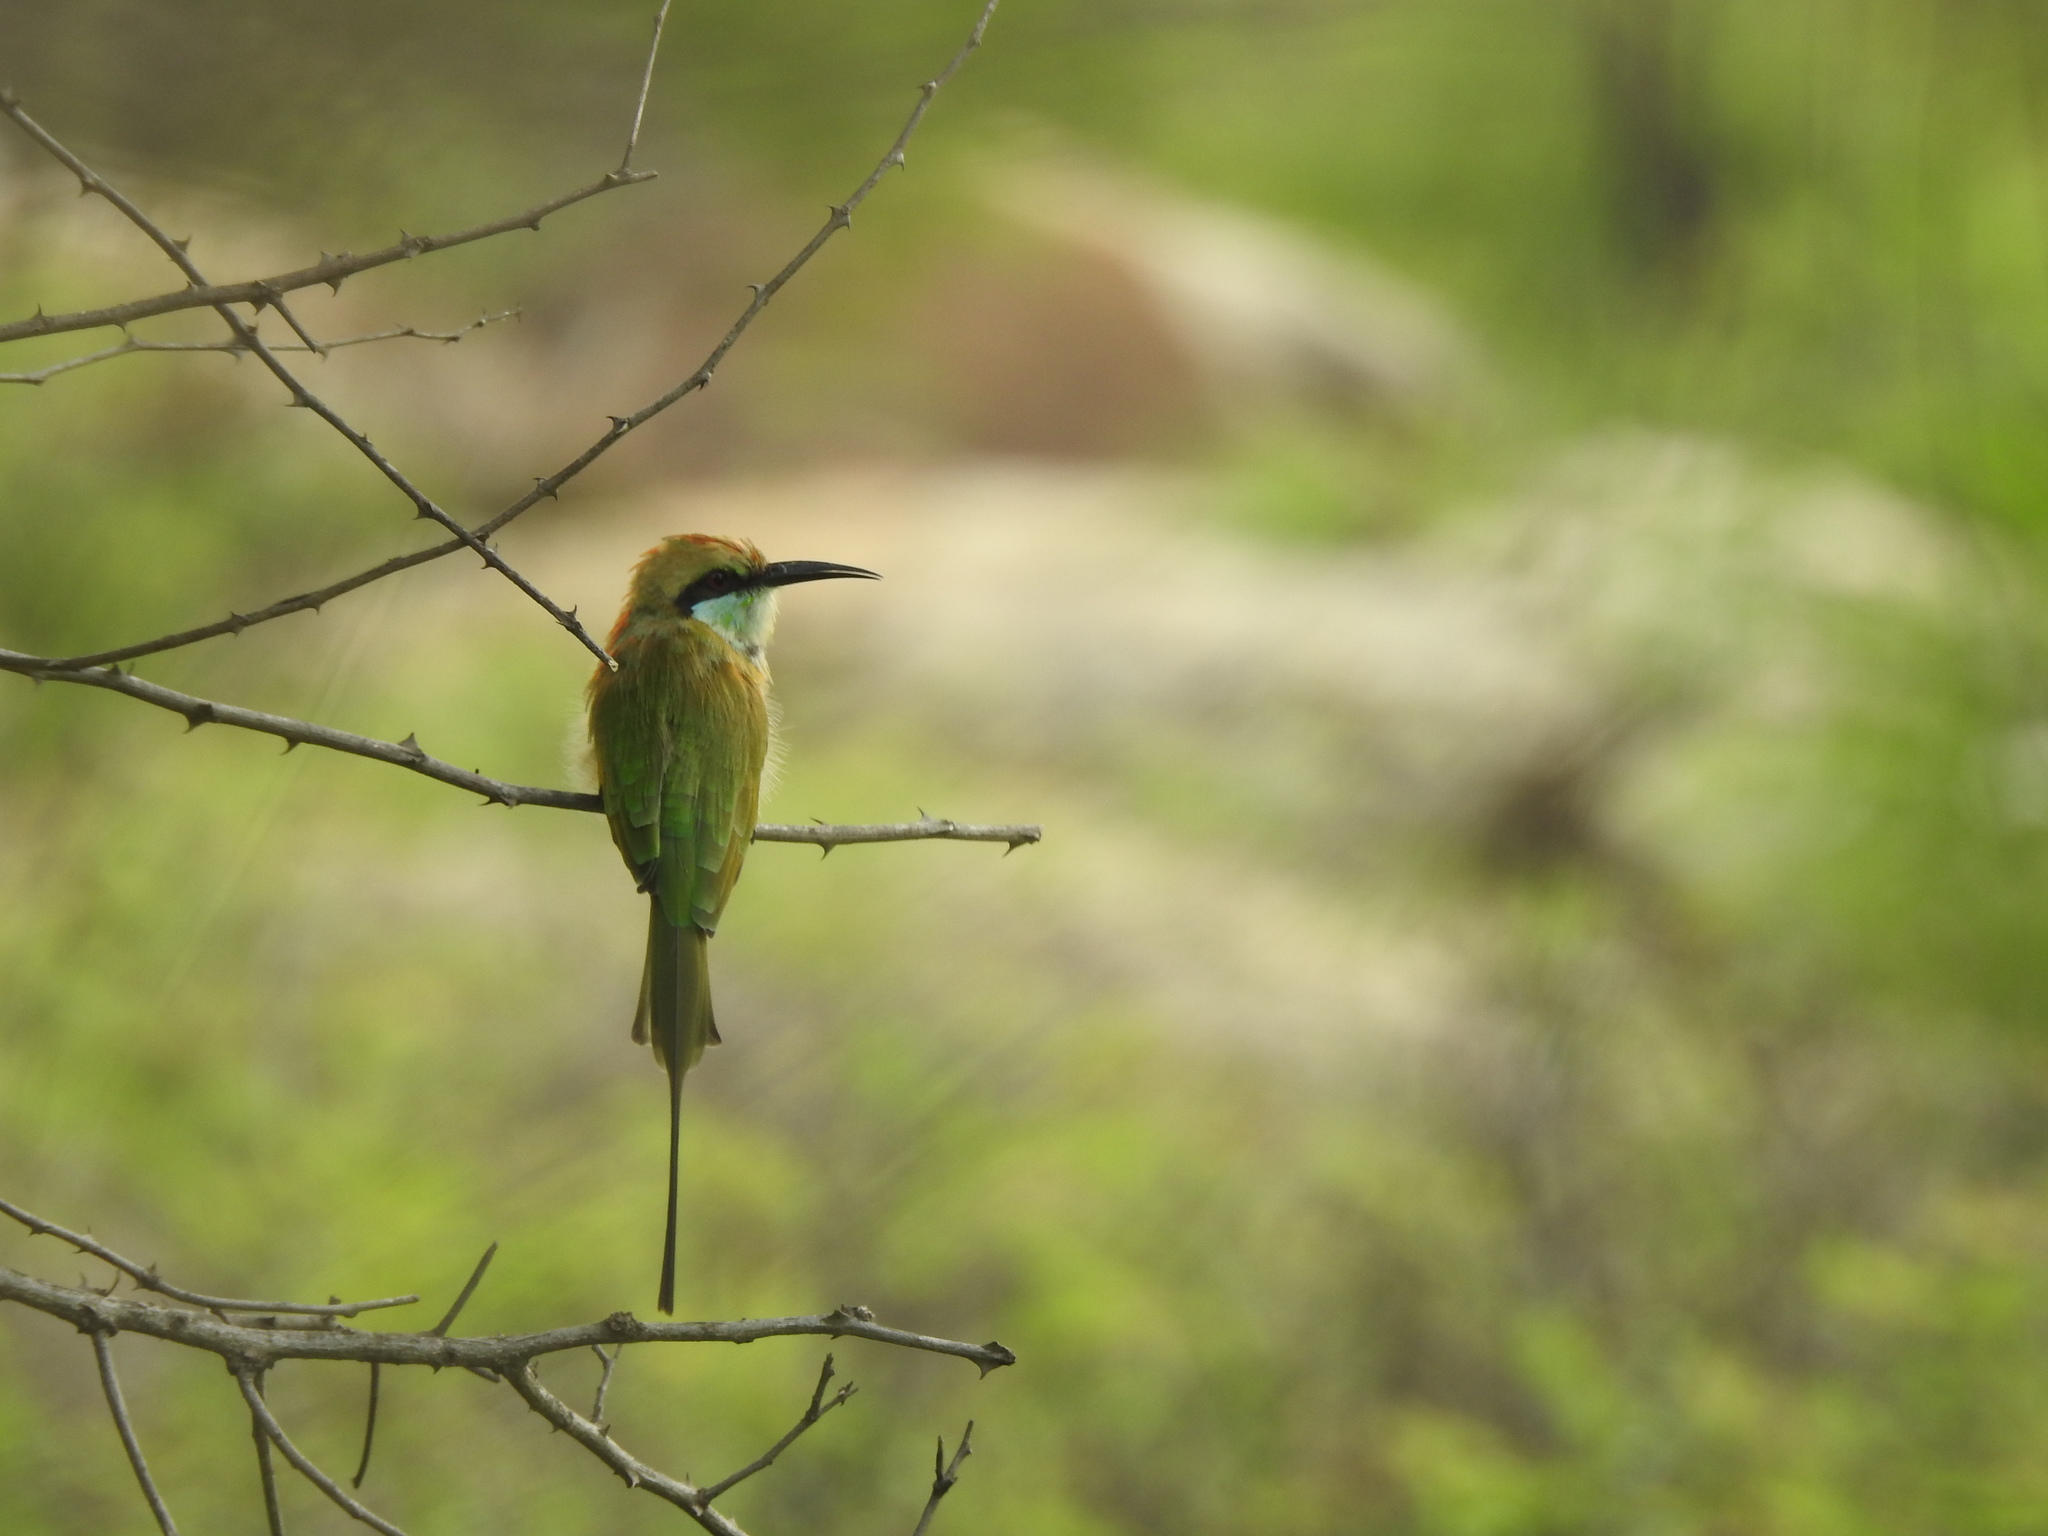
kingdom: Animalia
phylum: Chordata
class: Aves
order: Coraciiformes
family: Meropidae
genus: Merops
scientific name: Merops orientalis
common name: Green bee-eater
